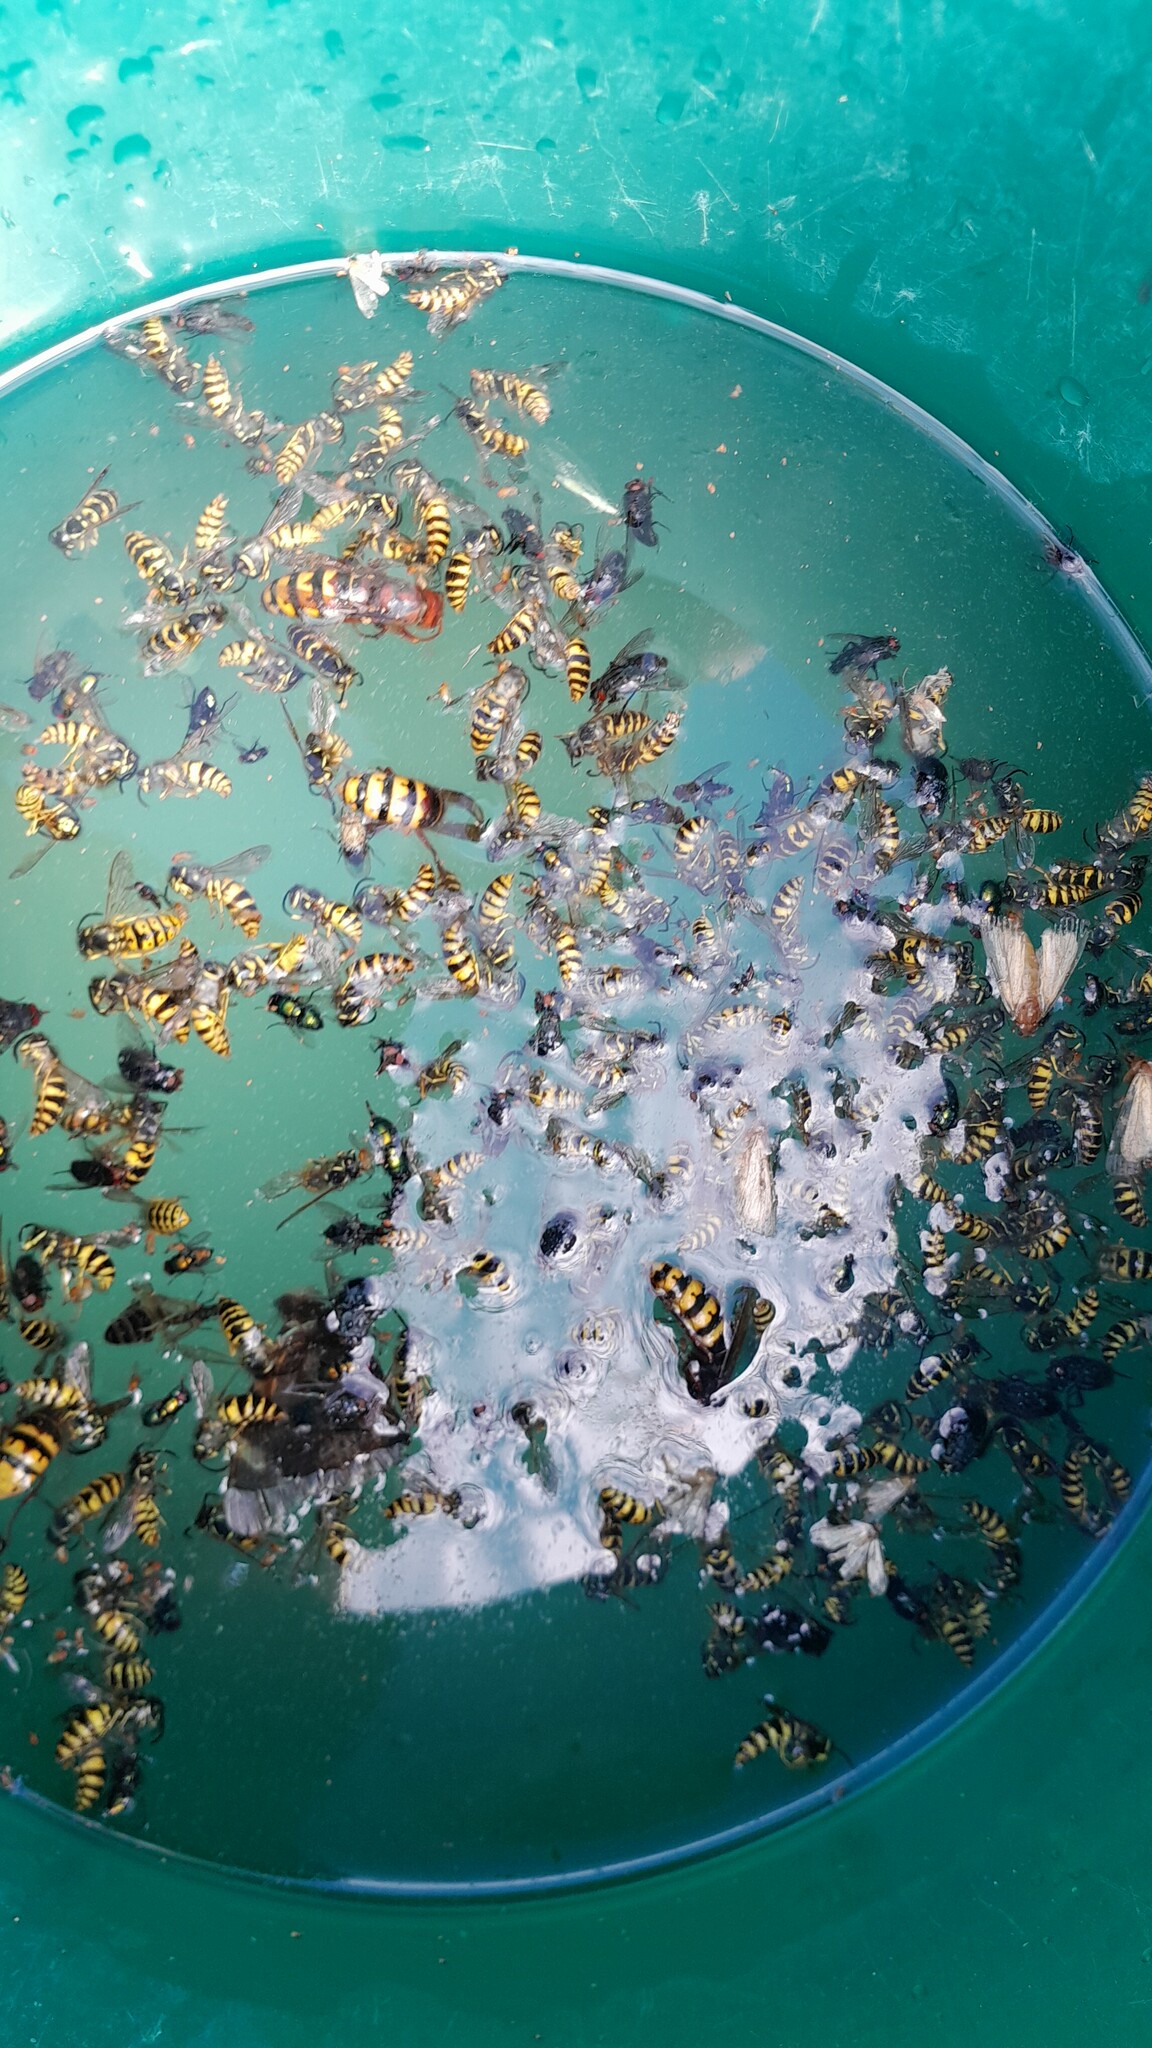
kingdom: Animalia
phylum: Arthropoda
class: Insecta
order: Hymenoptera
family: Vespidae
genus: Vespa
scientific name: Vespa crabro
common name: Hornet
